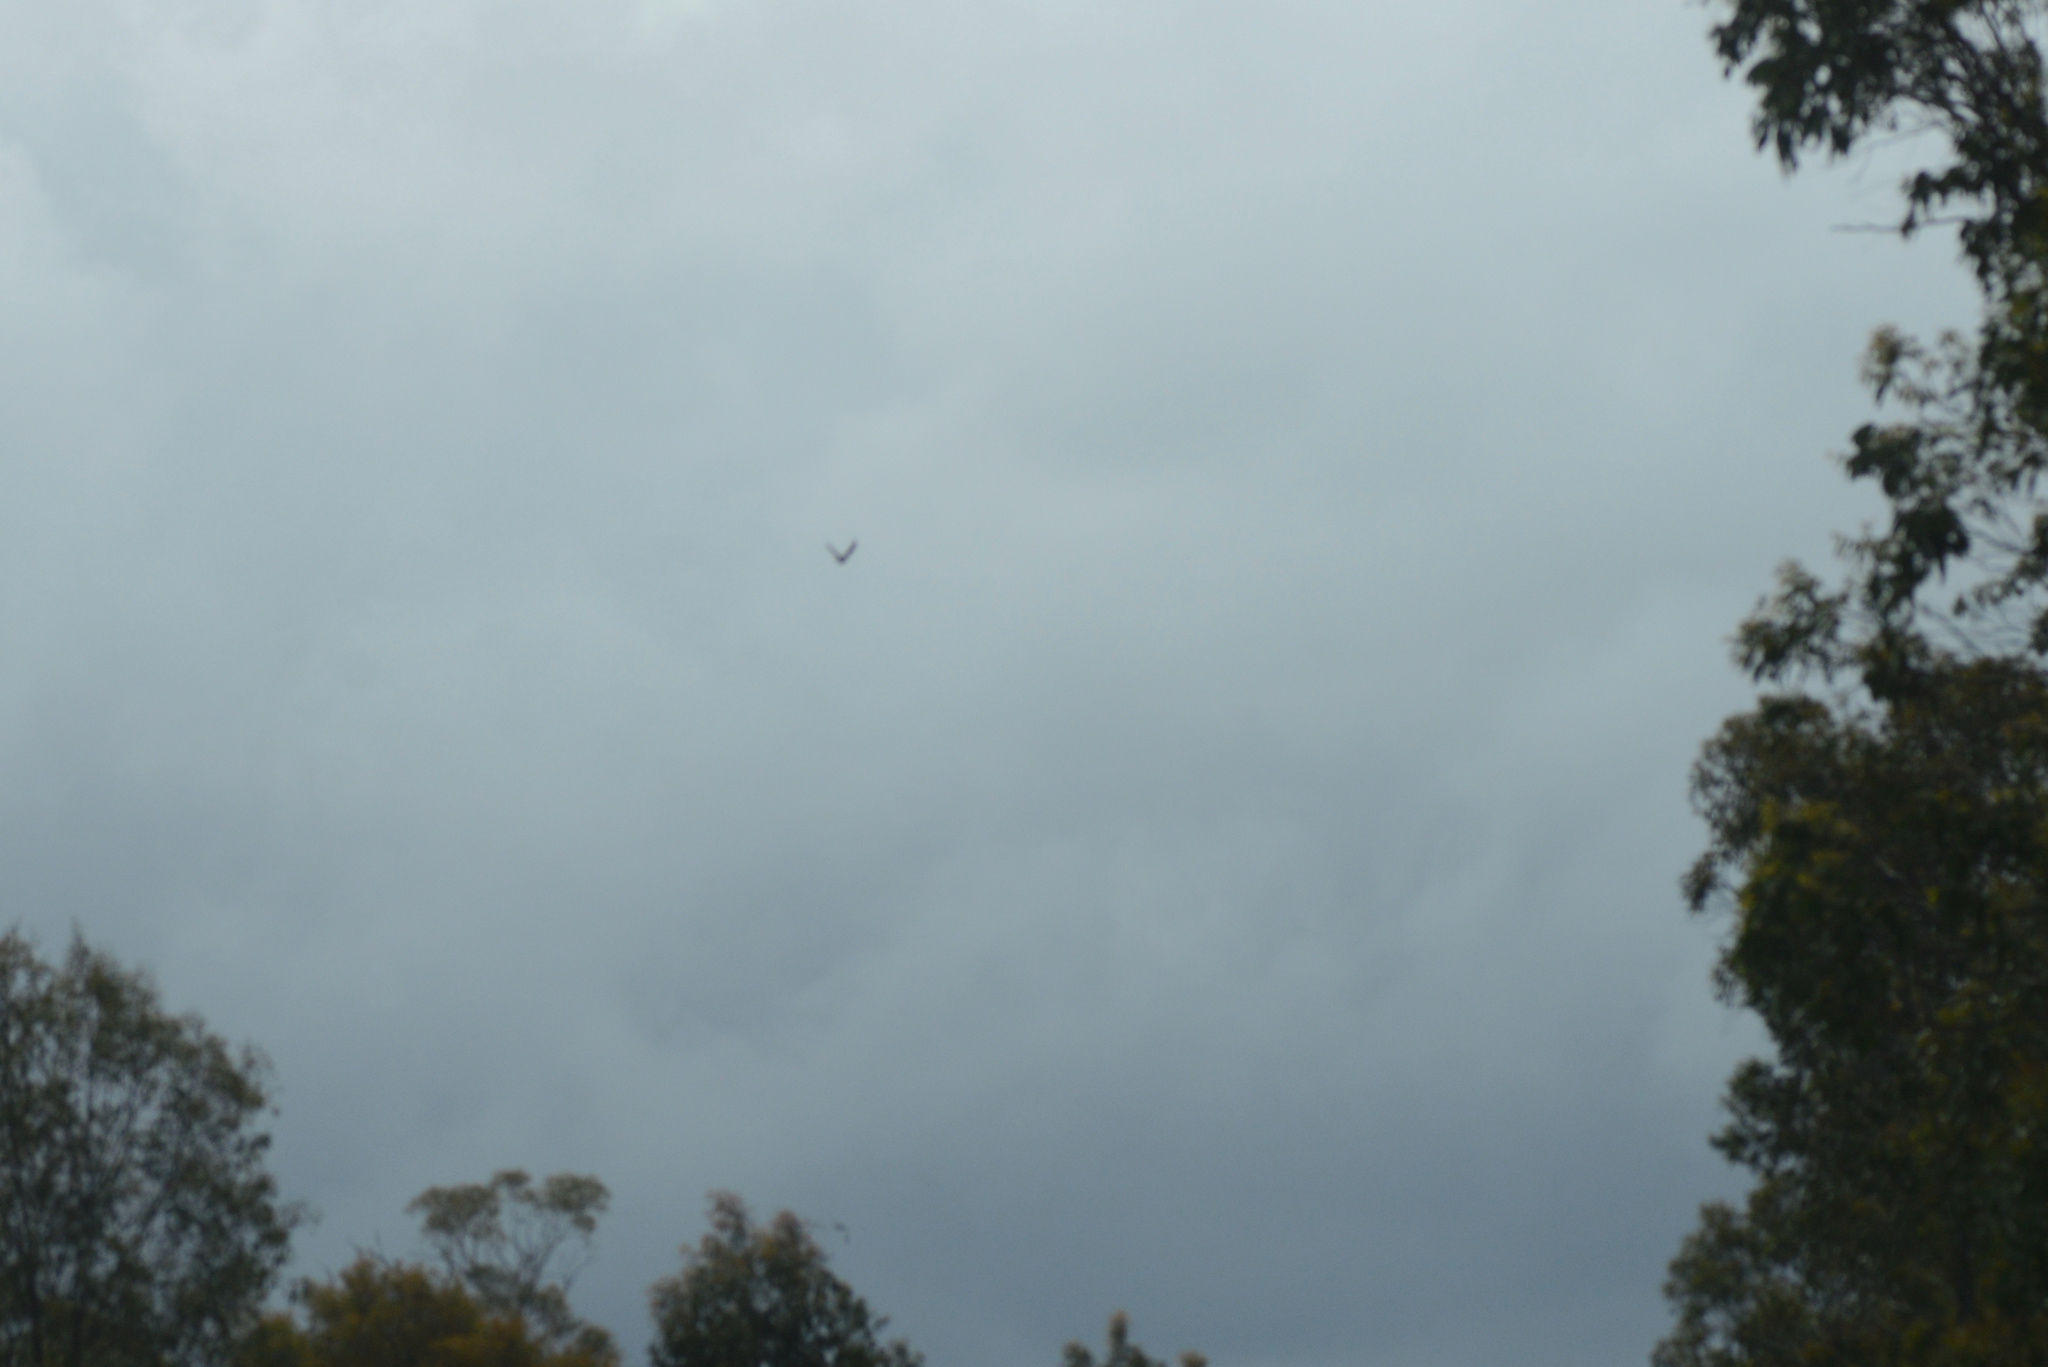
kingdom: Animalia
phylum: Chordata
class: Aves
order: Passeriformes
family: Corvidae
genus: Corvus
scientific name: Corvus tasmanicus
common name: Forest raven
